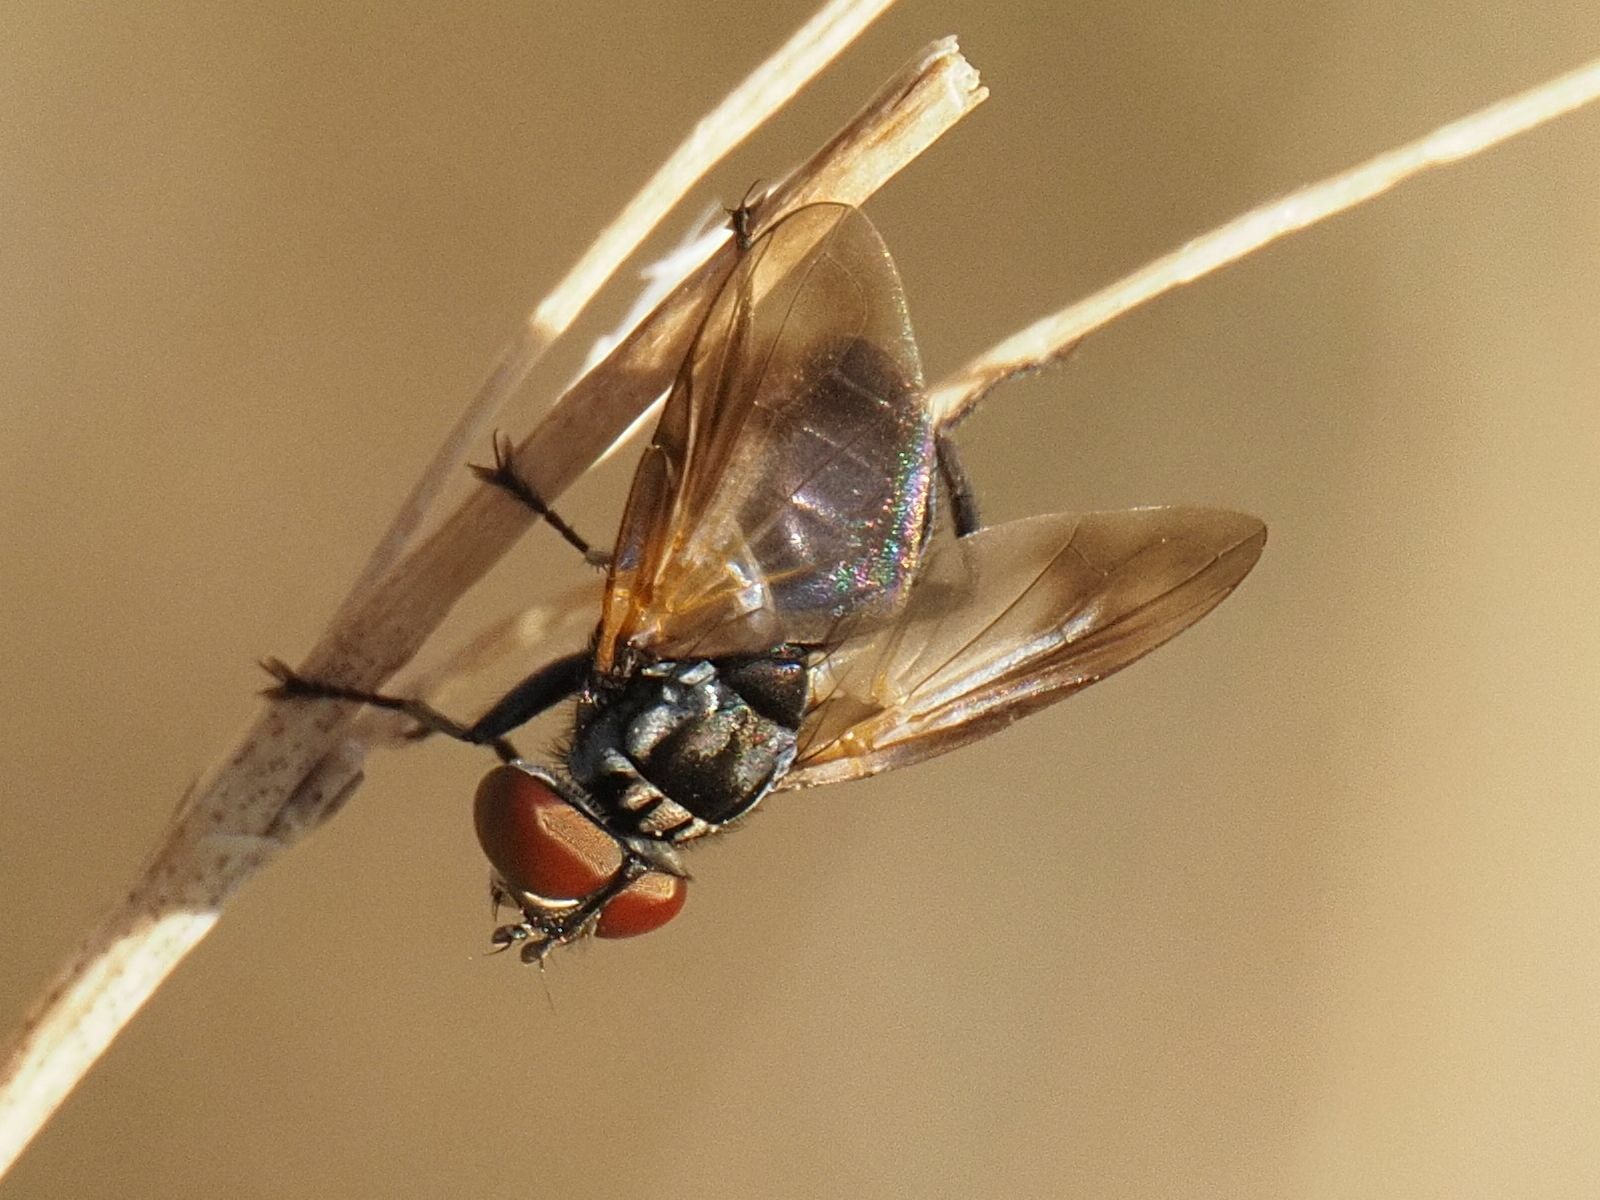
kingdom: Animalia
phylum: Arthropoda
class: Insecta
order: Diptera
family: Tachinidae
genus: Phasia
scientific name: Phasia obesa
